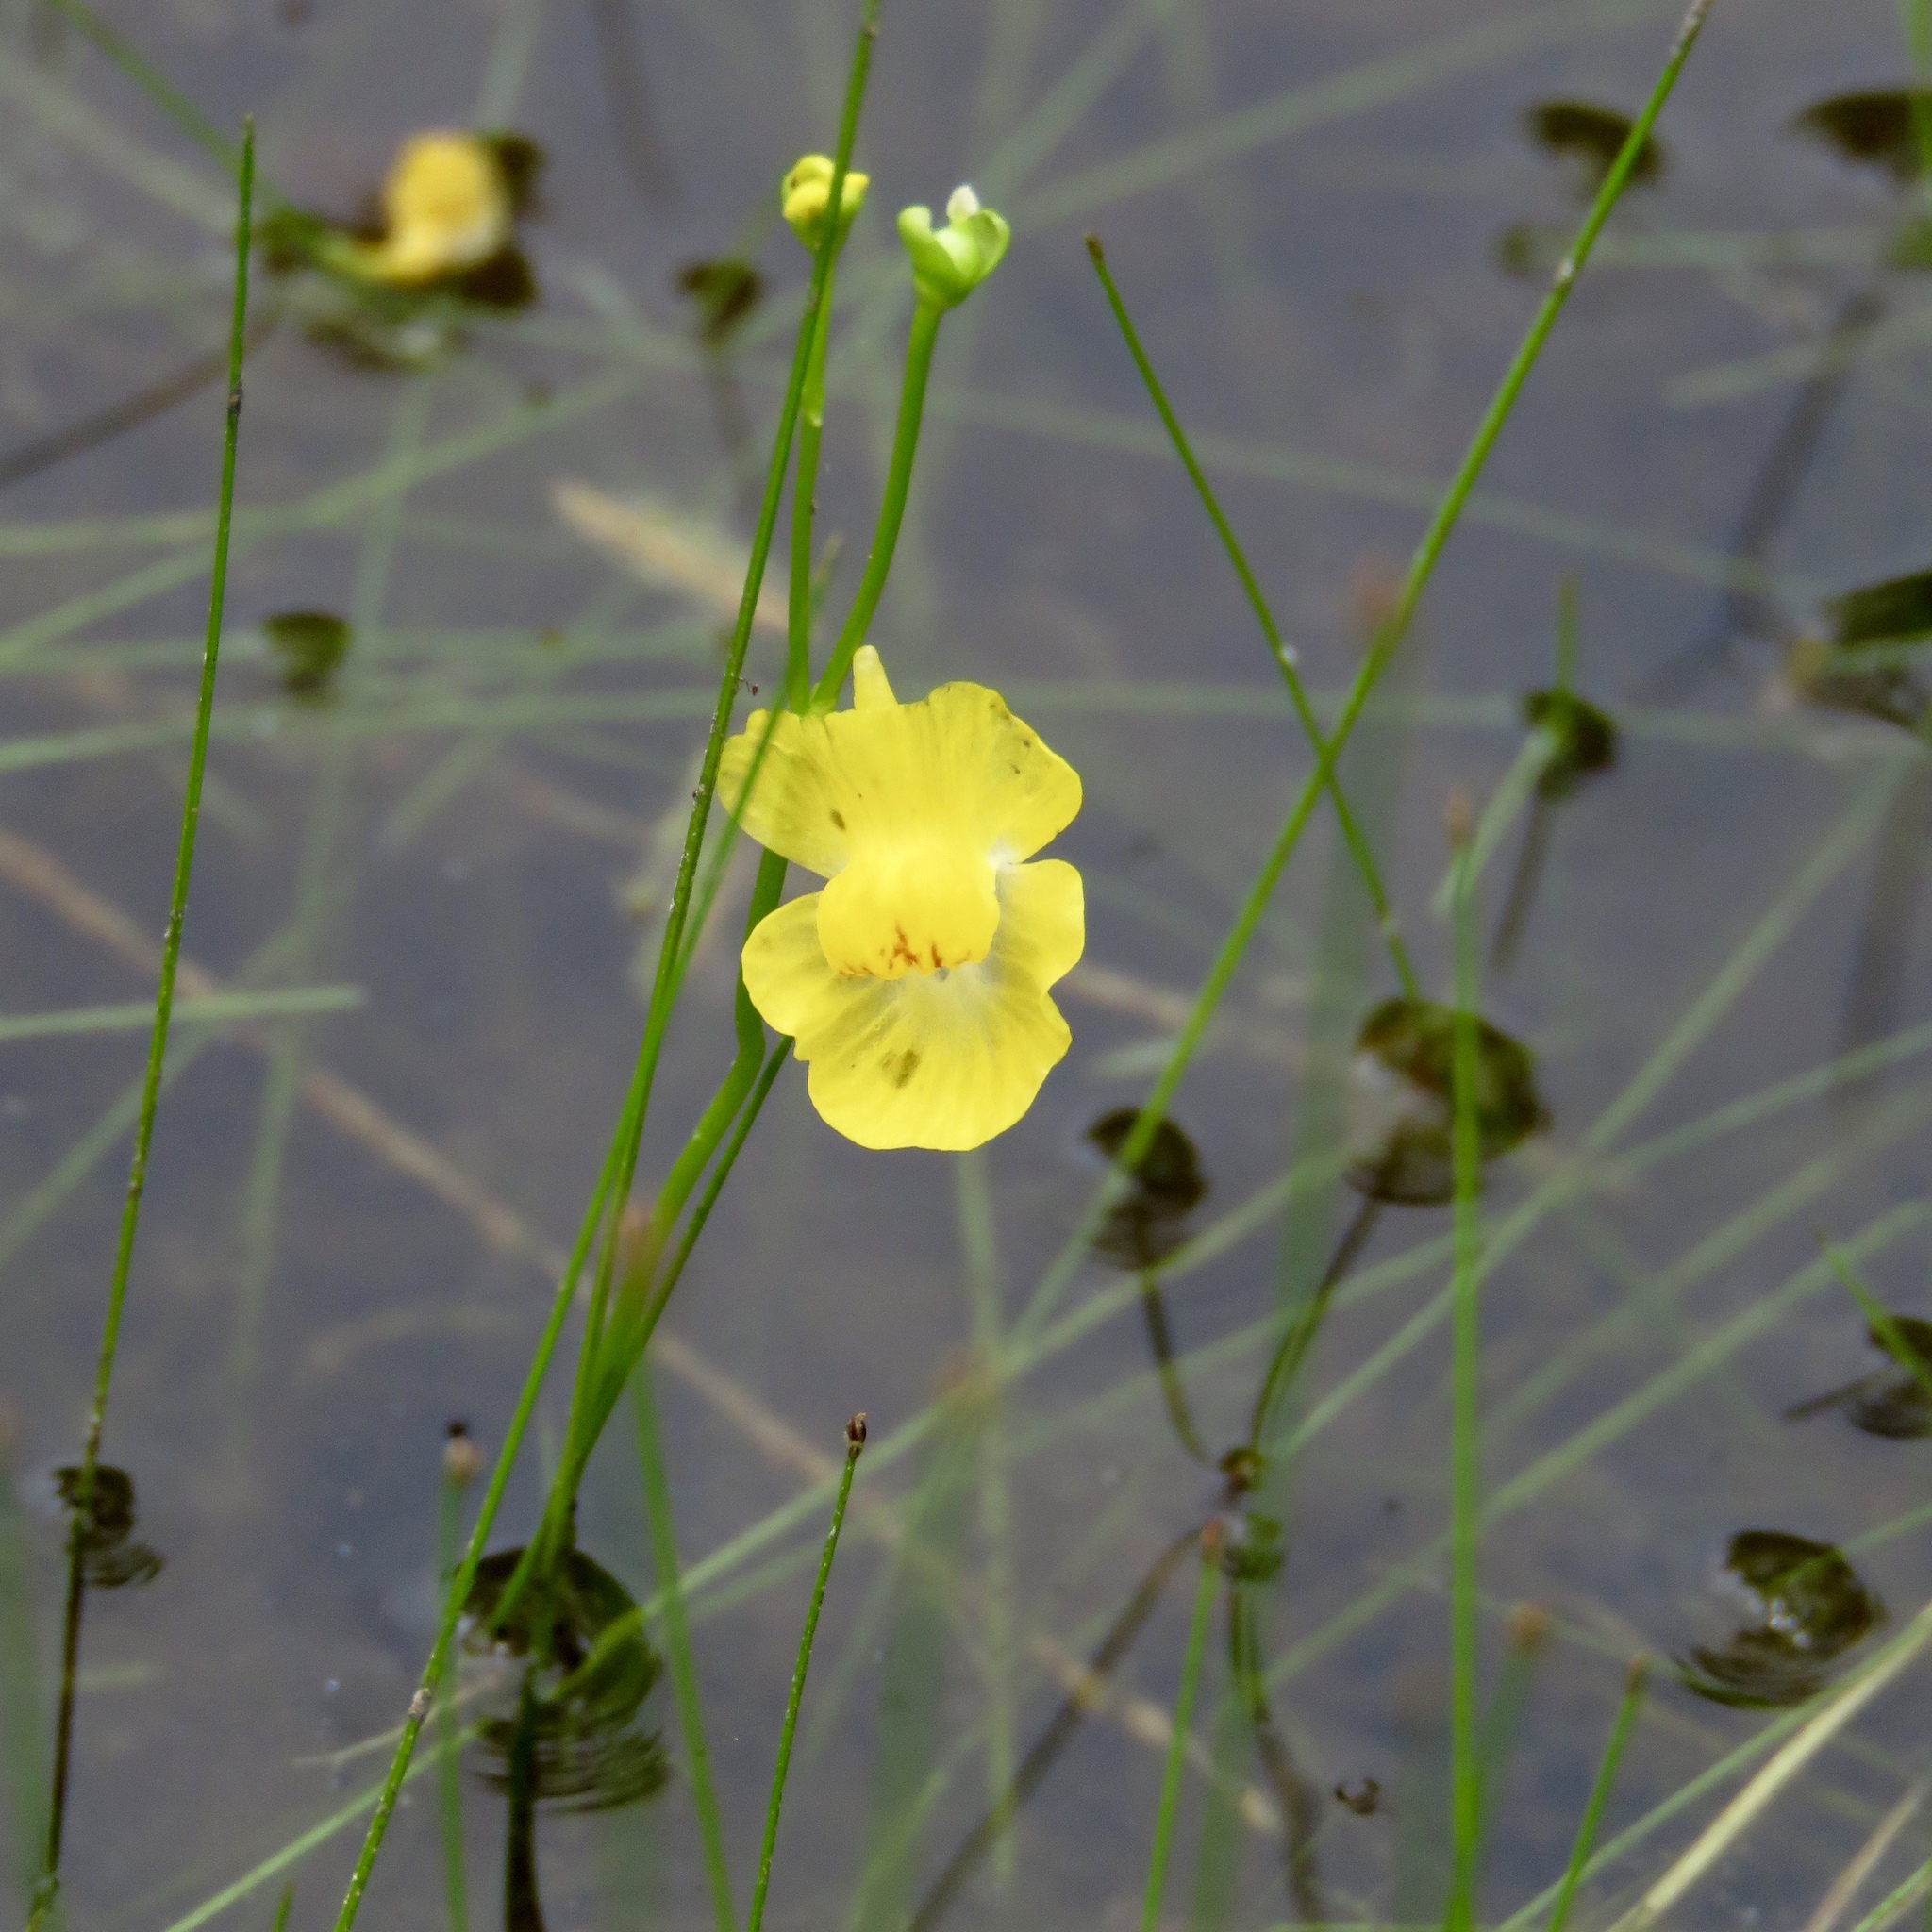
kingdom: Plantae
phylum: Tracheophyta
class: Magnoliopsida
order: Lamiales
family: Lentibulariaceae
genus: Utricularia
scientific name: Utricularia gibba
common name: Humped bladderwort
